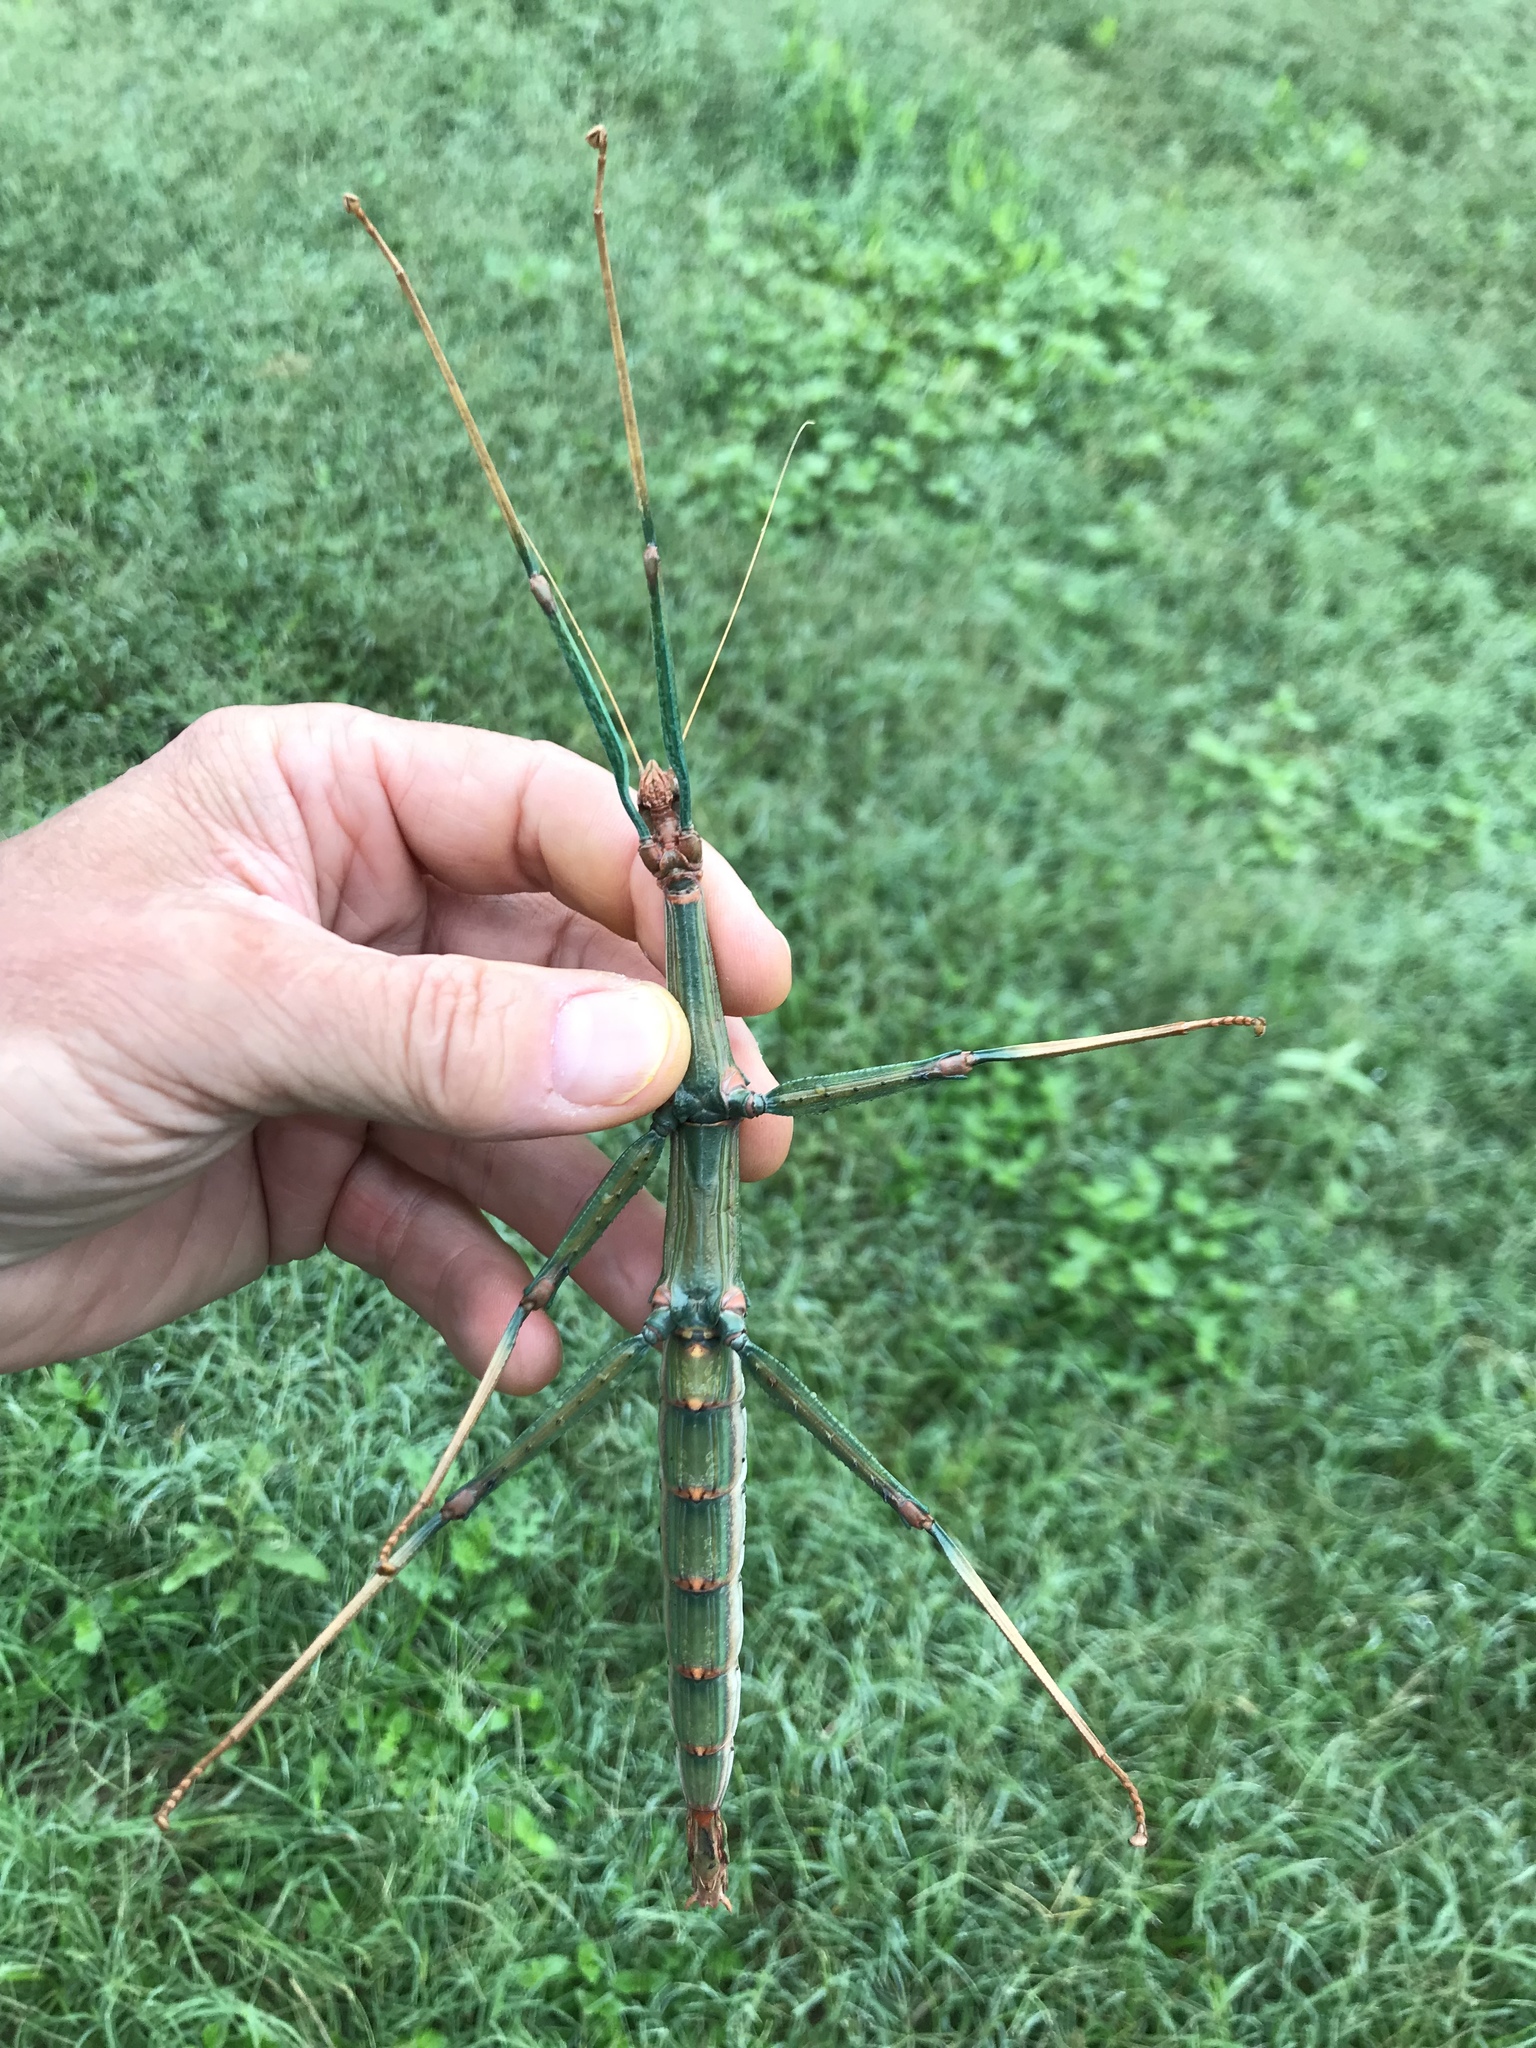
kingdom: Animalia
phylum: Arthropoda
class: Insecta
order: Phasmida
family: Diapheromeridae
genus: Megaphasma
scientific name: Megaphasma denticrus
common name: Giant walkingstick
